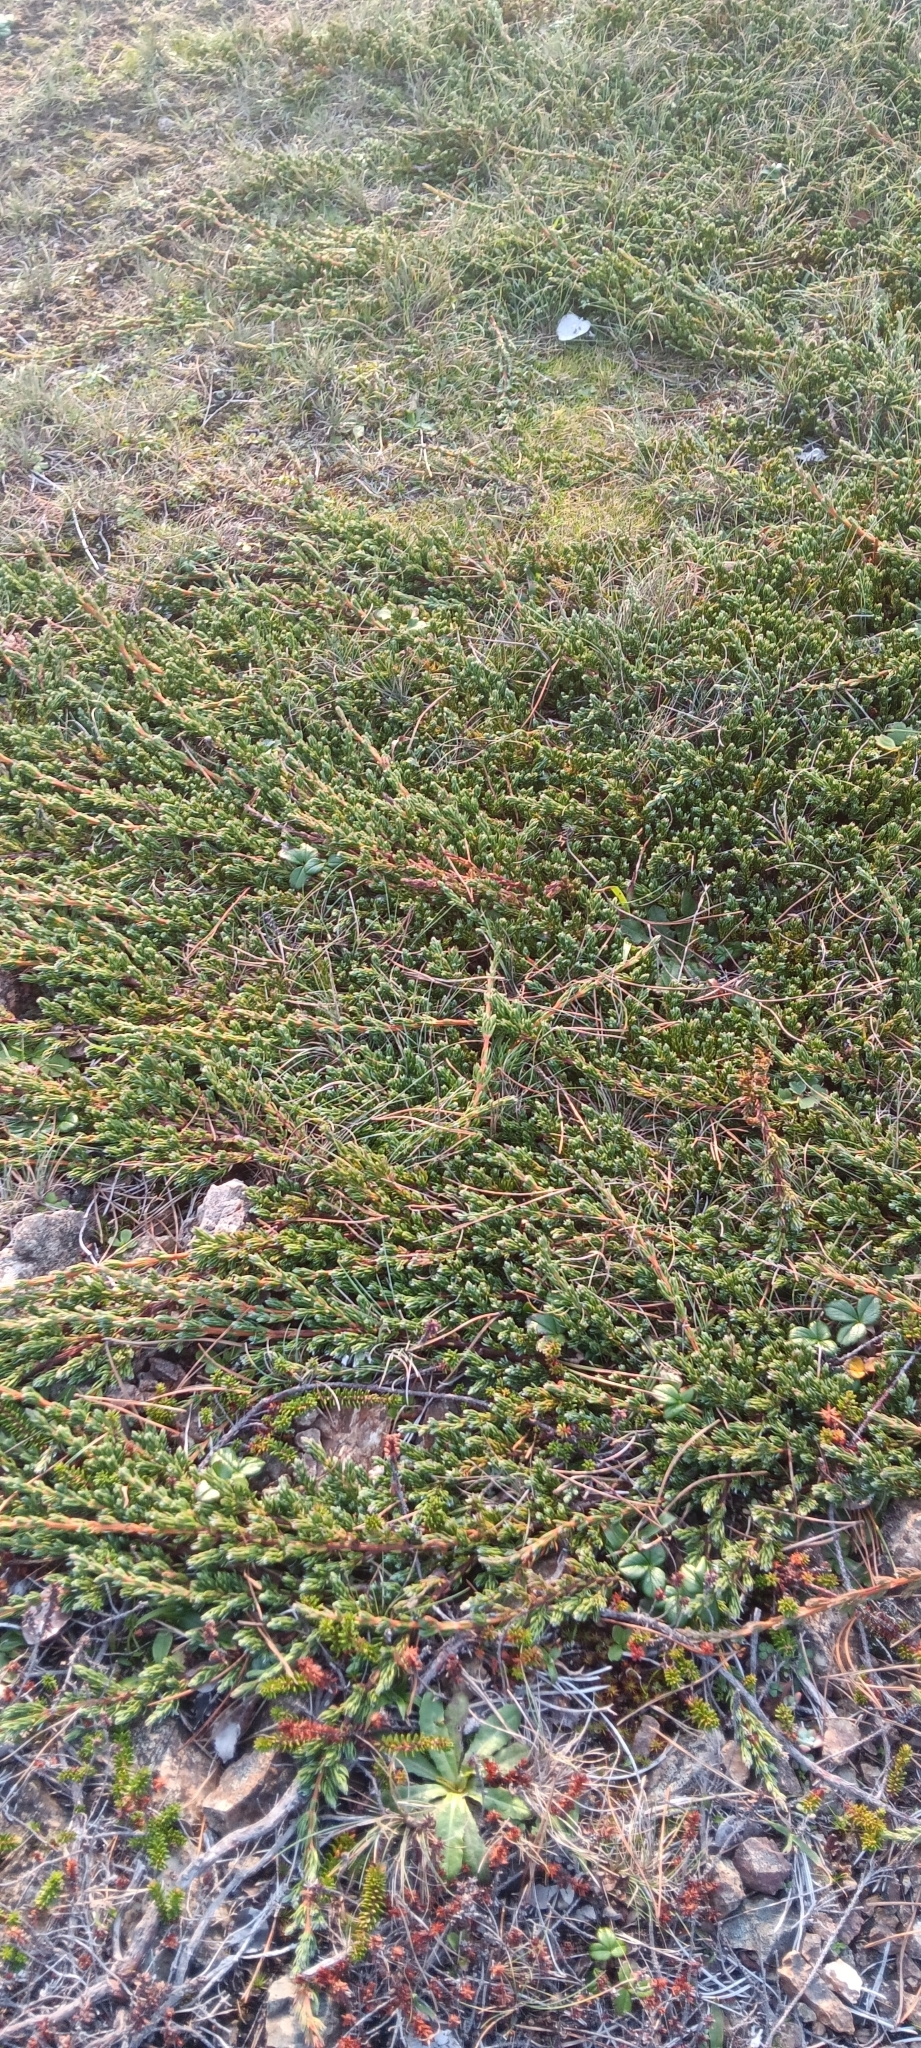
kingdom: Plantae
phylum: Tracheophyta
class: Pinopsida
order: Pinales
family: Cupressaceae
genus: Juniperus
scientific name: Juniperus communis
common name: Common juniper
